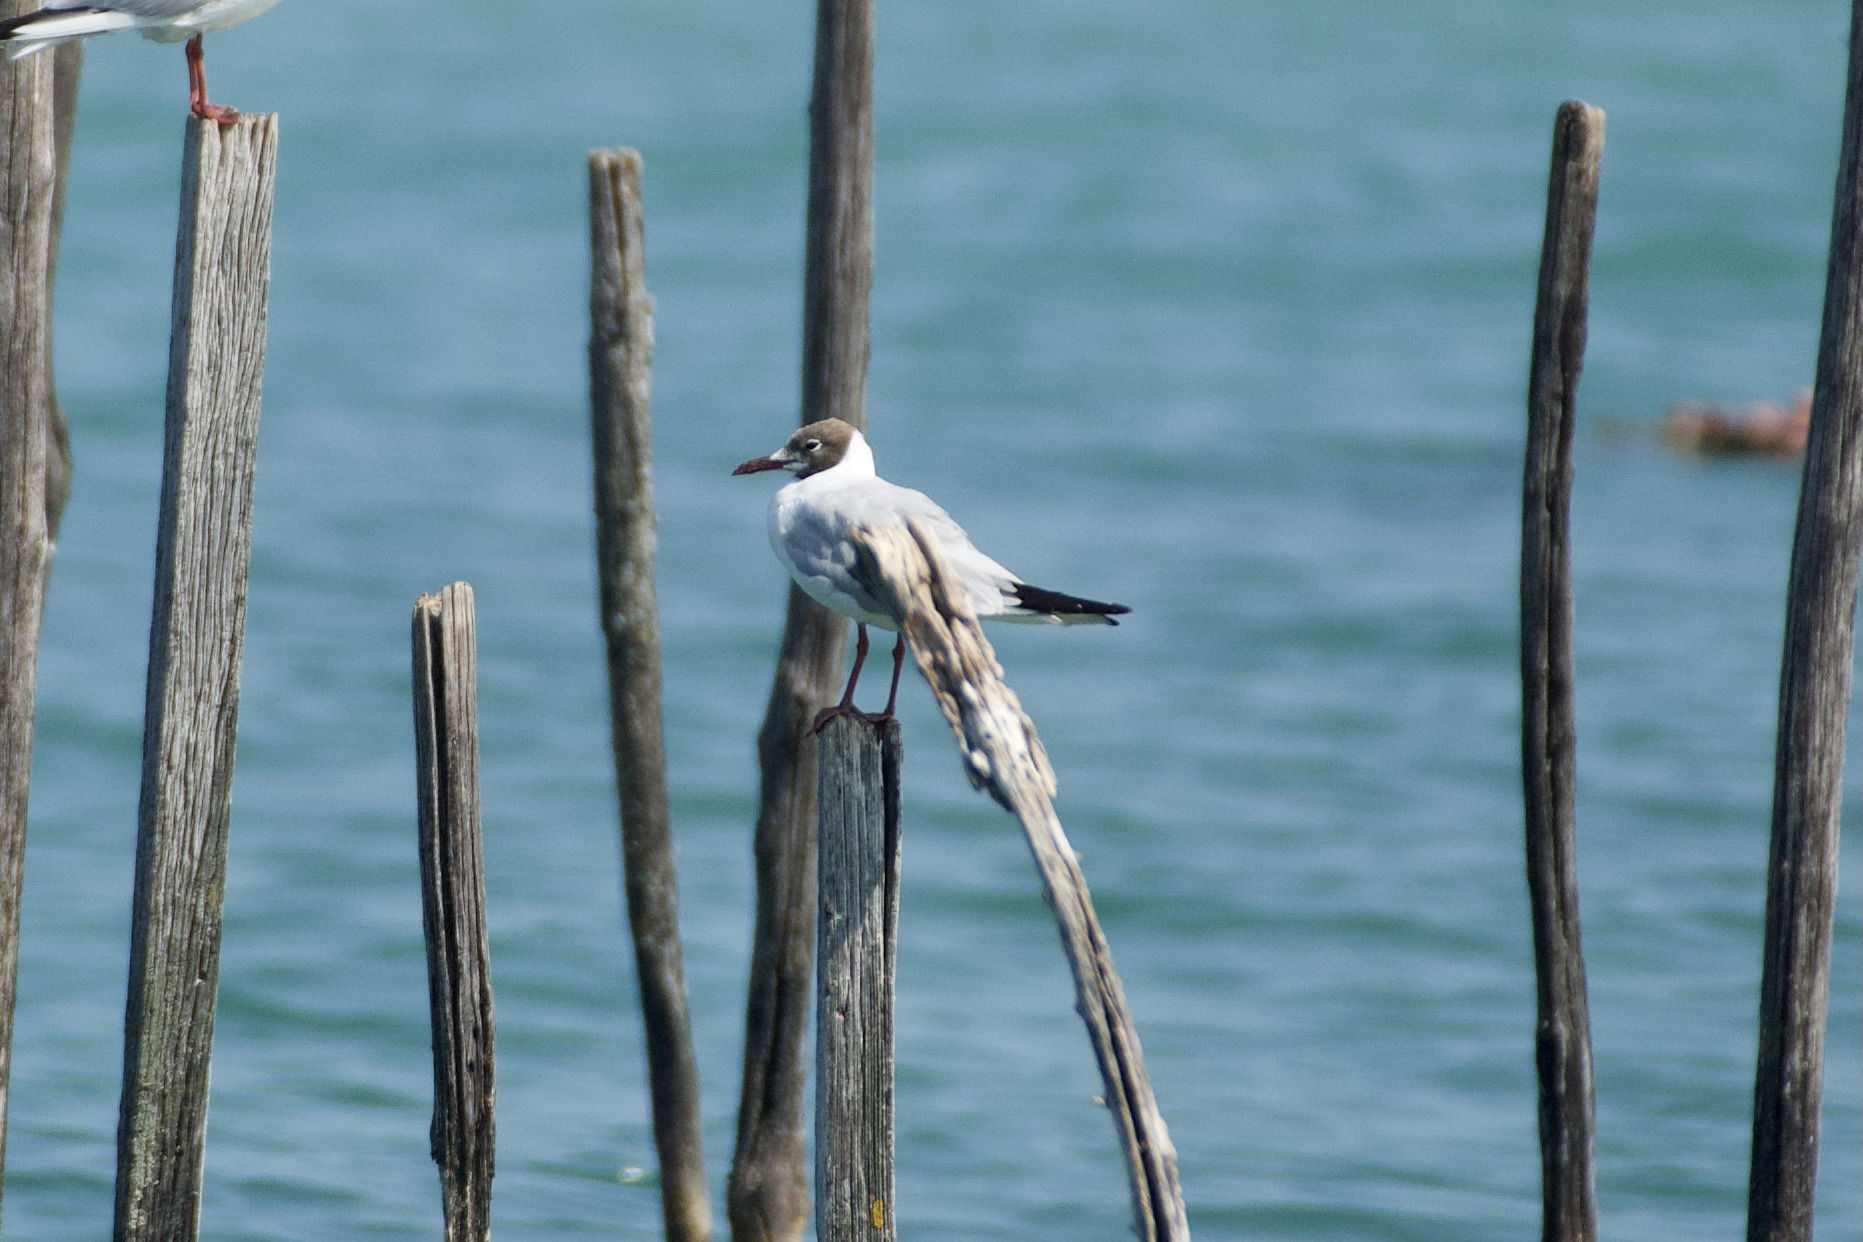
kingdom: Animalia
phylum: Chordata
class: Aves
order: Charadriiformes
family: Laridae
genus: Chroicocephalus
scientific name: Chroicocephalus ridibundus
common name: Black-headed gull
